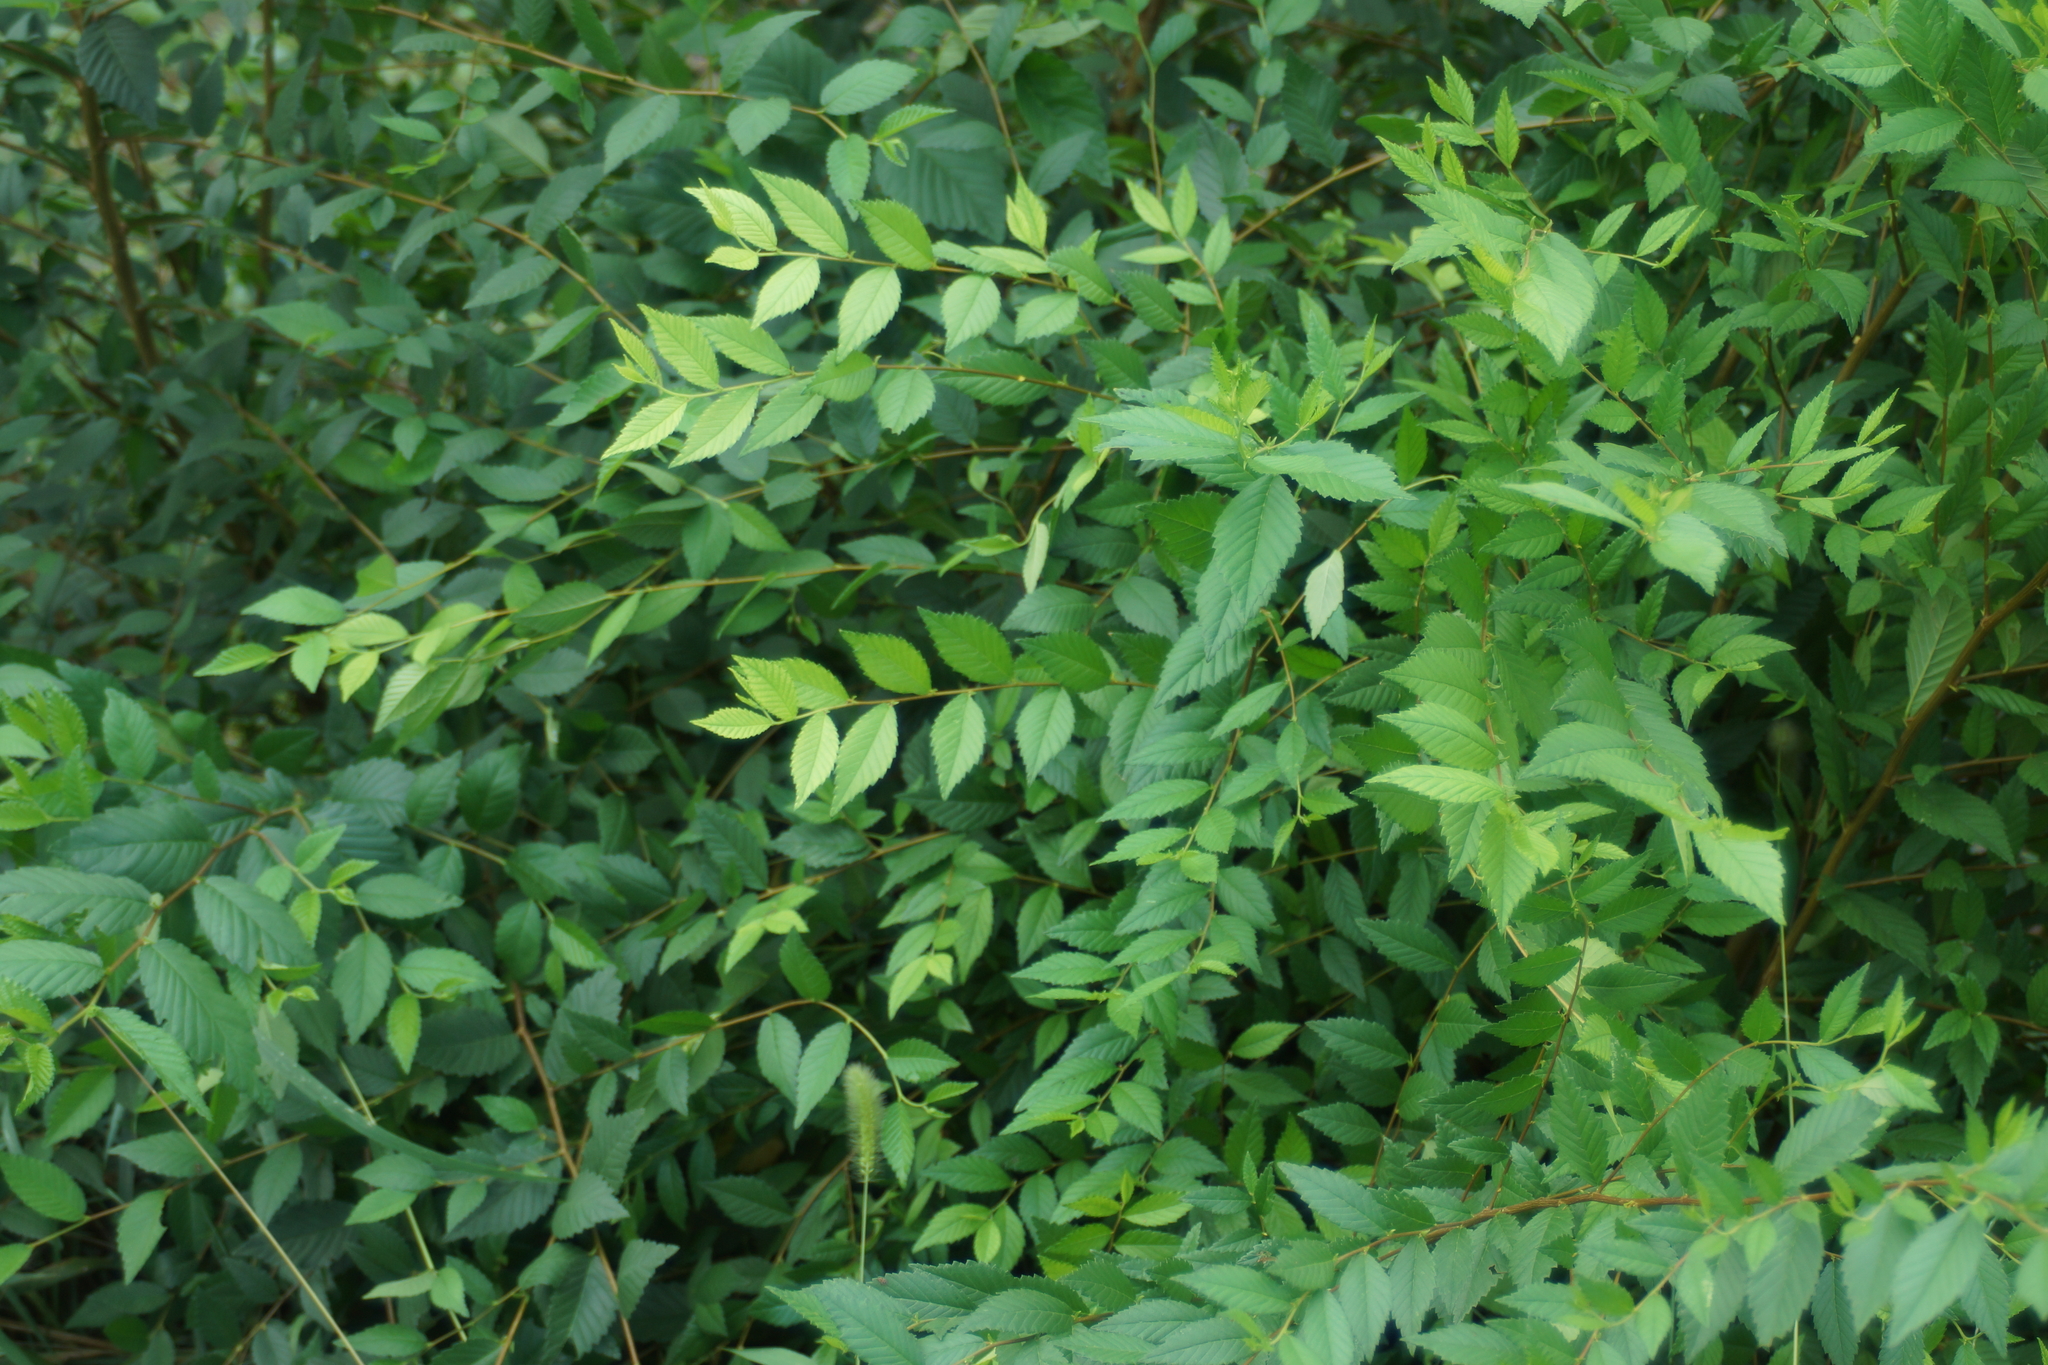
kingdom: Plantae
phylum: Tracheophyta
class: Magnoliopsida
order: Rosales
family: Ulmaceae
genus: Ulmus
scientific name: Ulmus pumila
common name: Siberian elm
